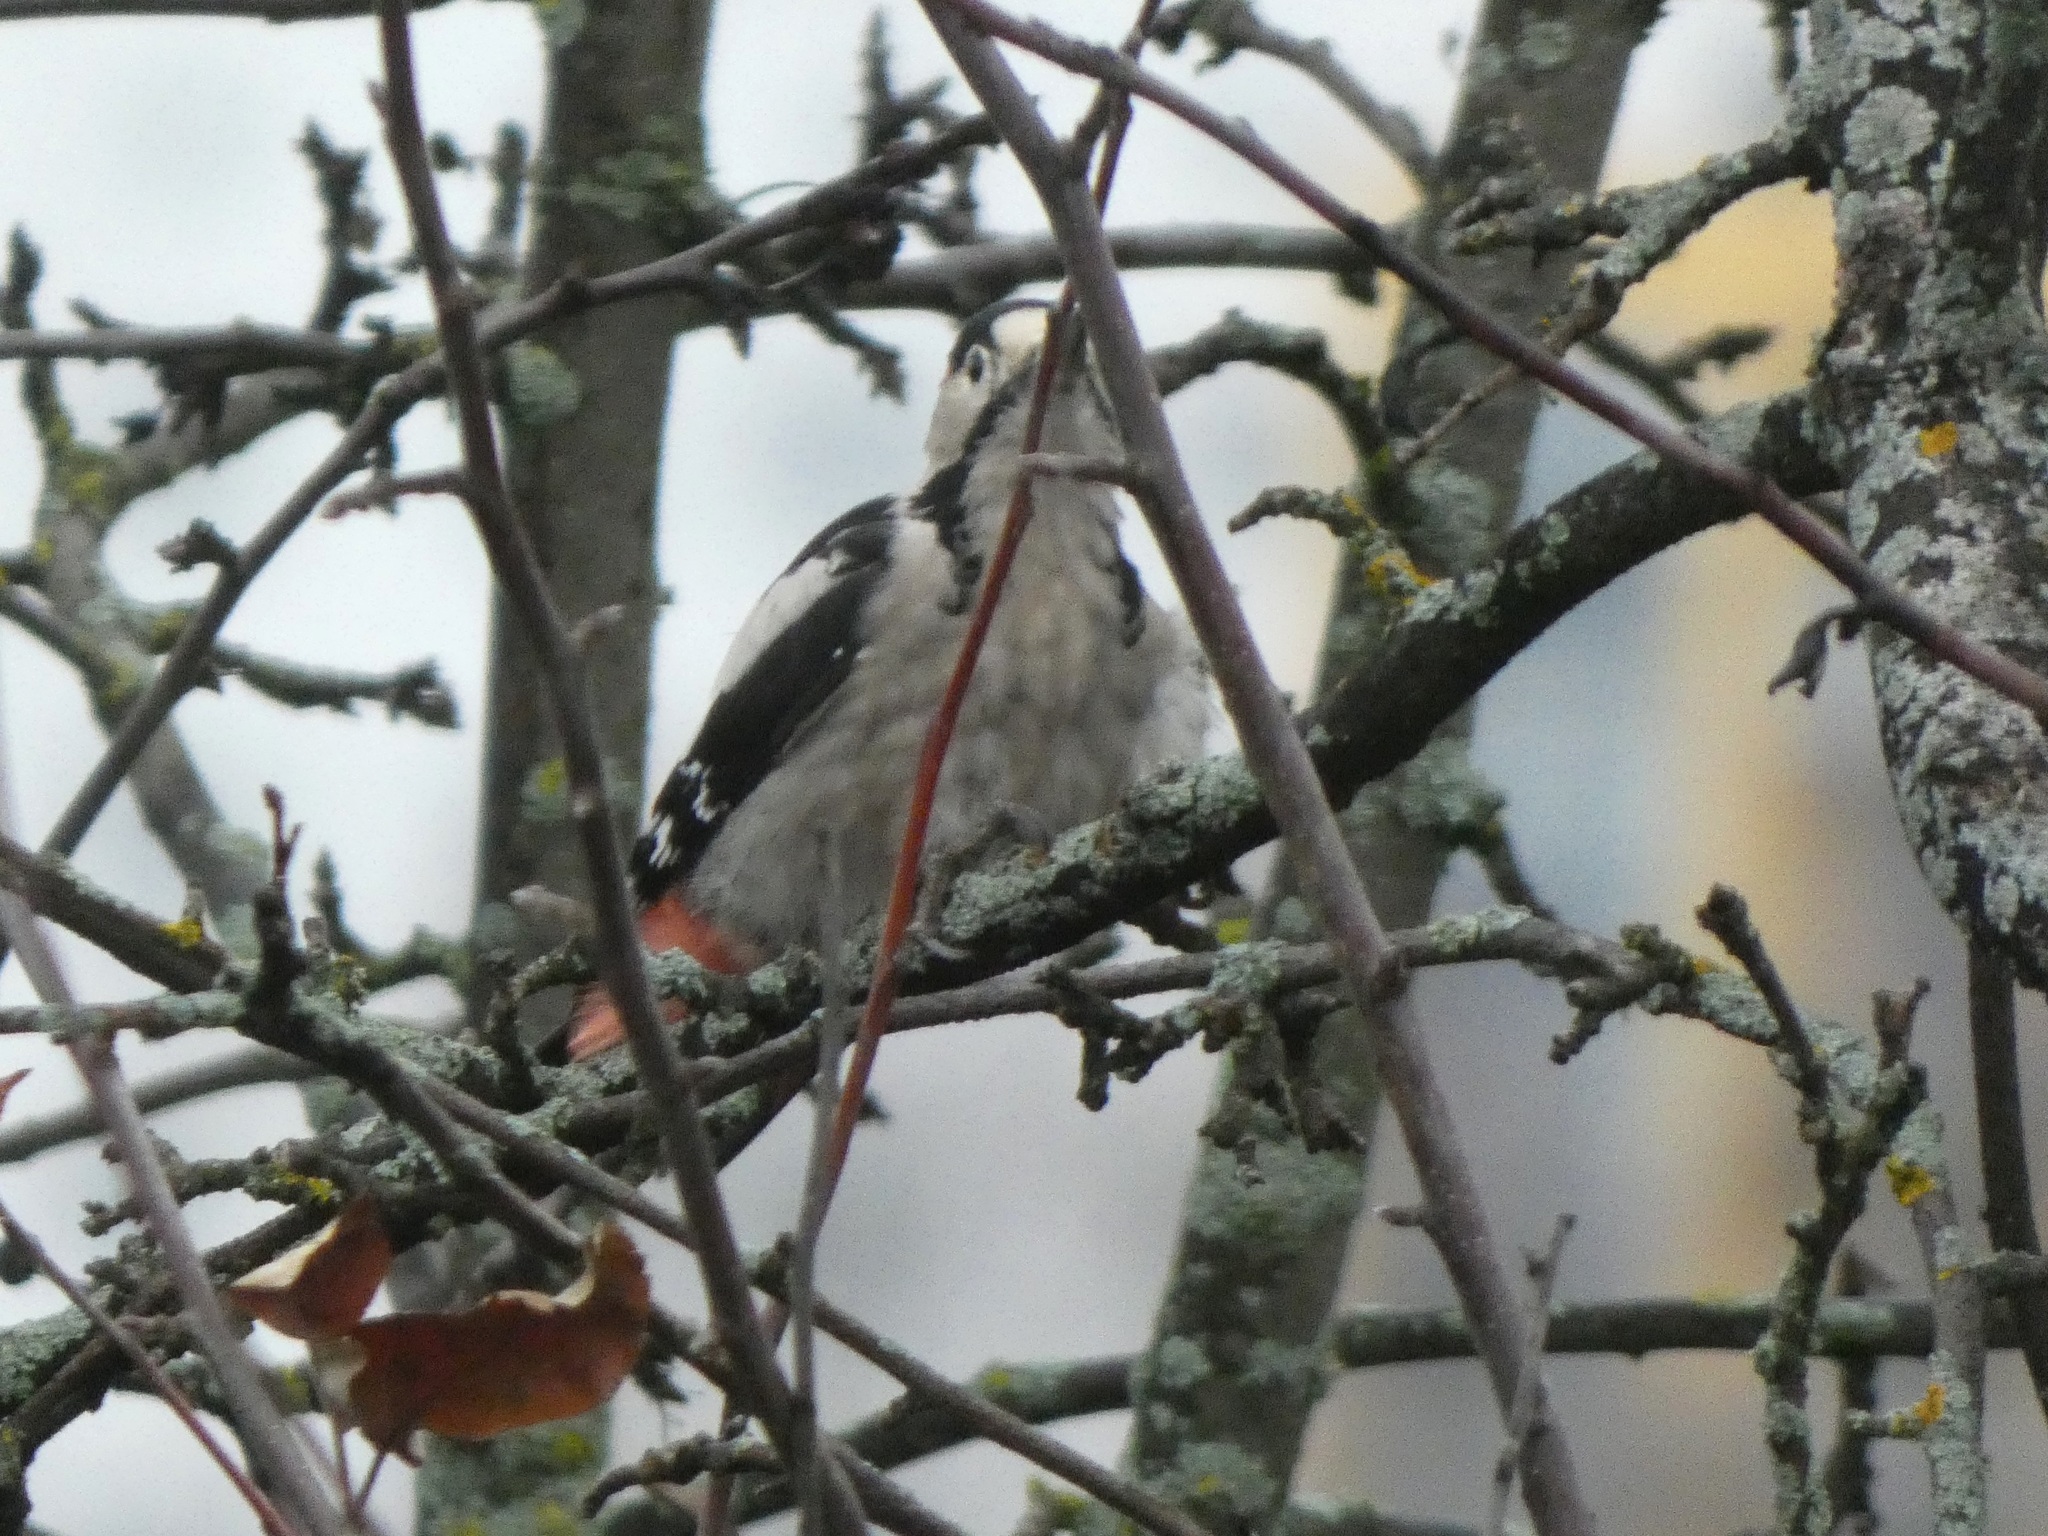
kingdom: Animalia
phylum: Chordata
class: Aves
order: Piciformes
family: Picidae
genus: Dendrocopos
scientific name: Dendrocopos syriacus
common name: Syrian woodpecker
